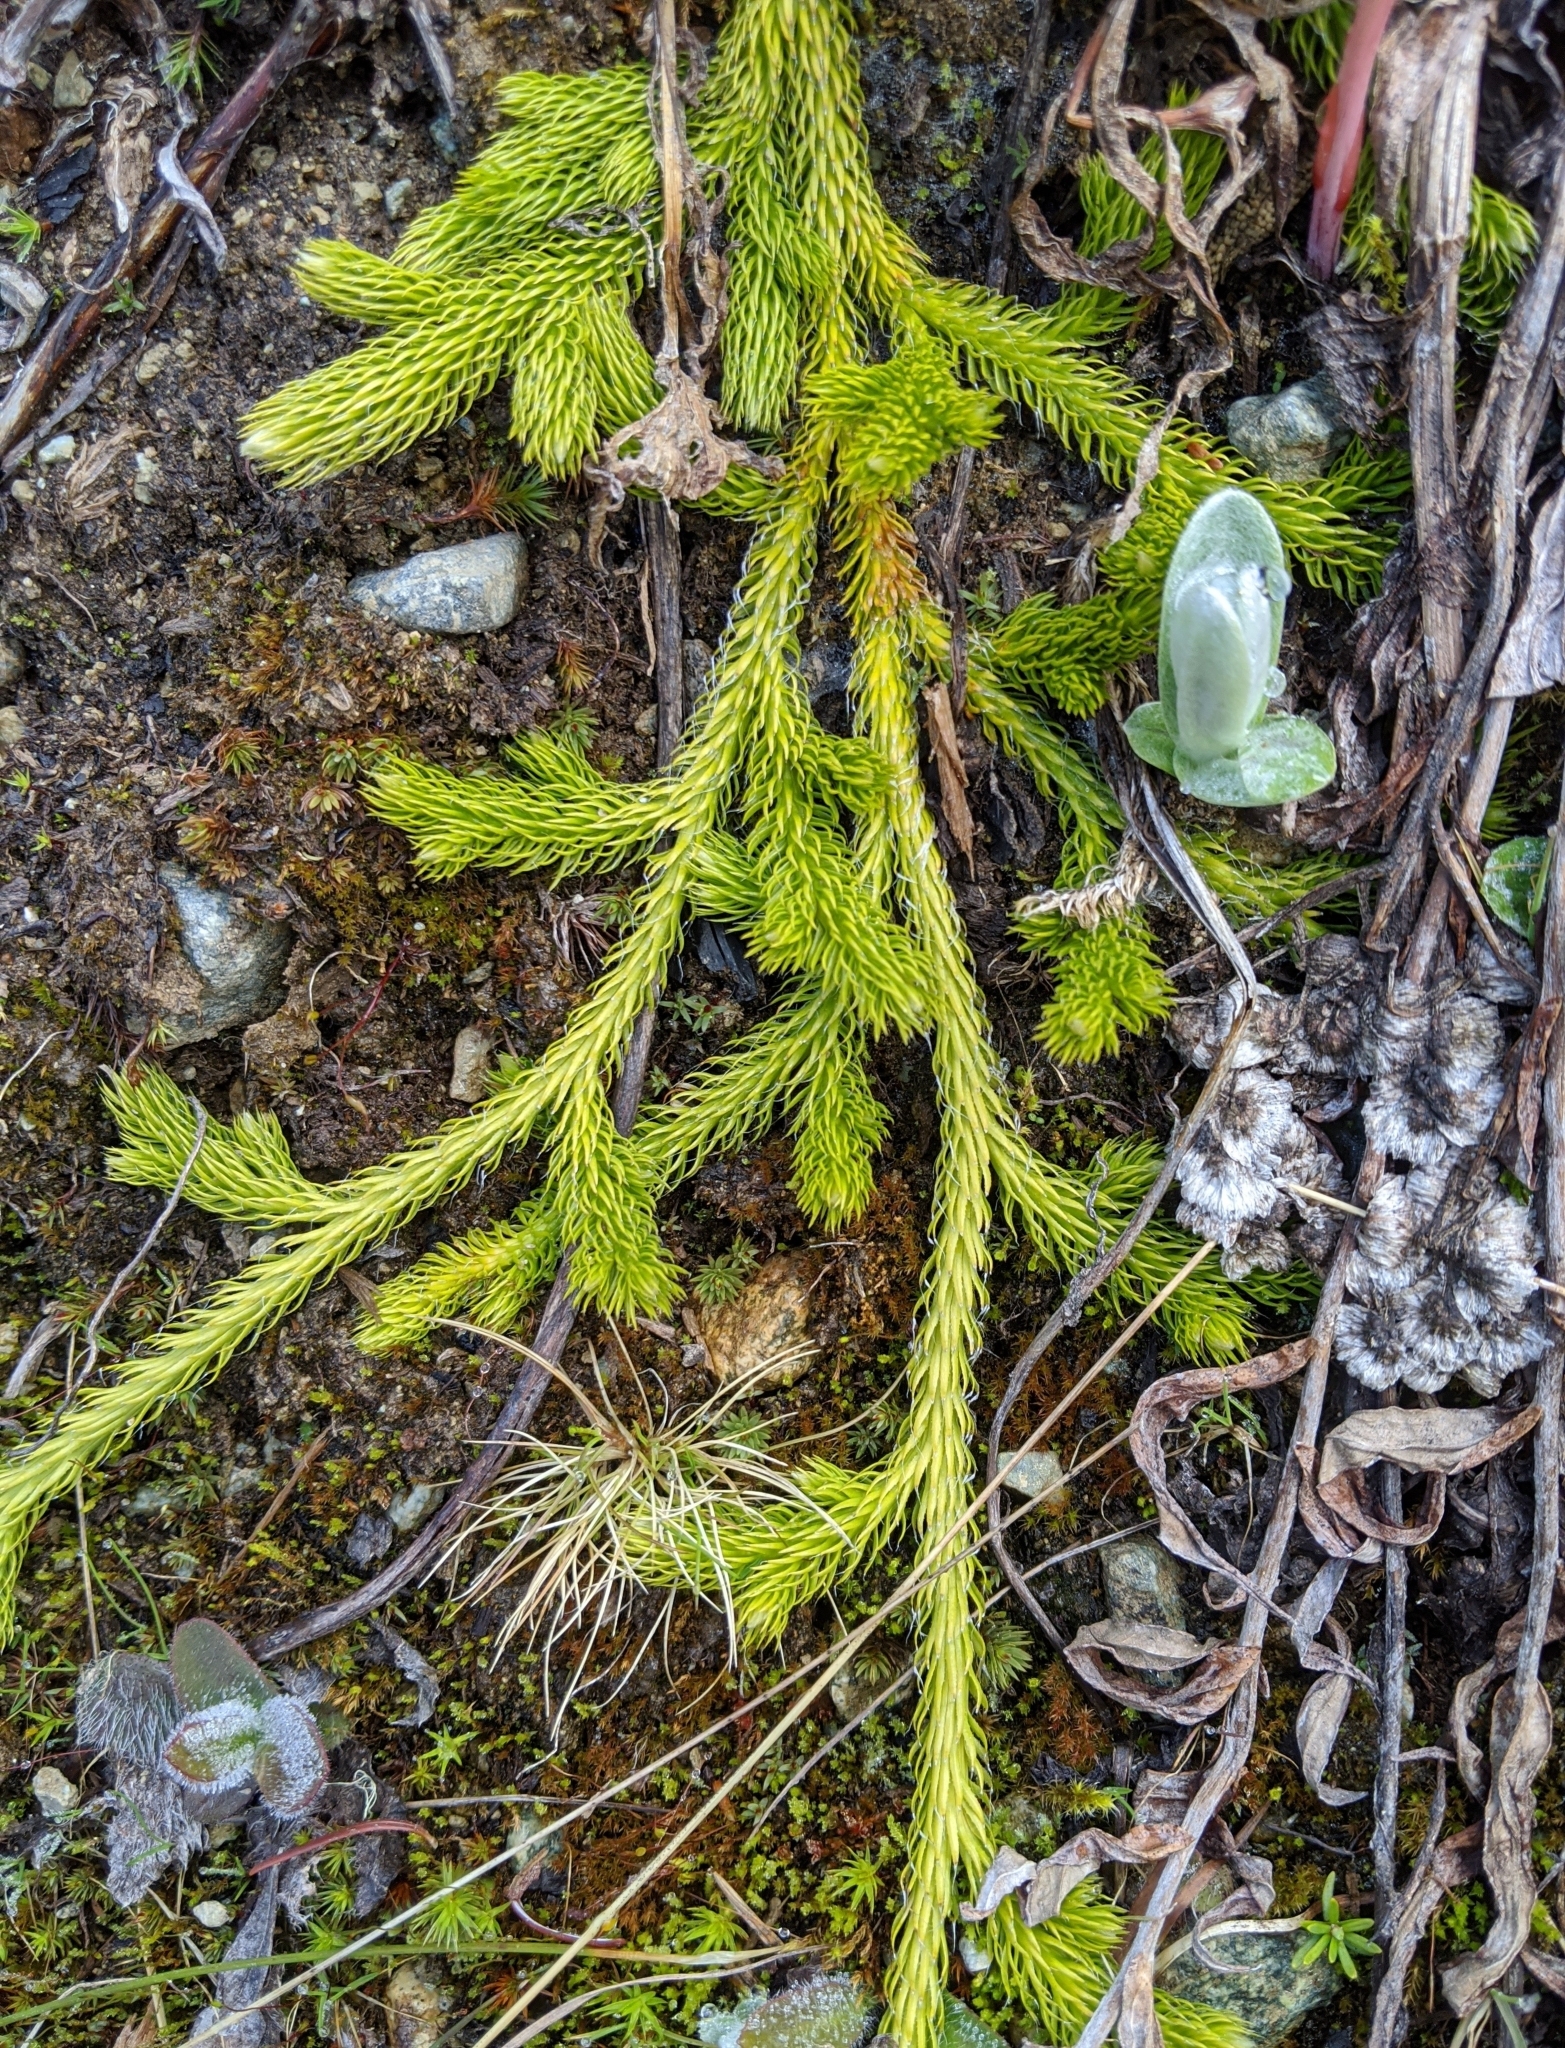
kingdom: Plantae
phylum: Tracheophyta
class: Lycopodiopsida
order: Lycopodiales
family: Lycopodiaceae
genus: Lycopodium
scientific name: Lycopodium clavatum
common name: Stag's-horn clubmoss
